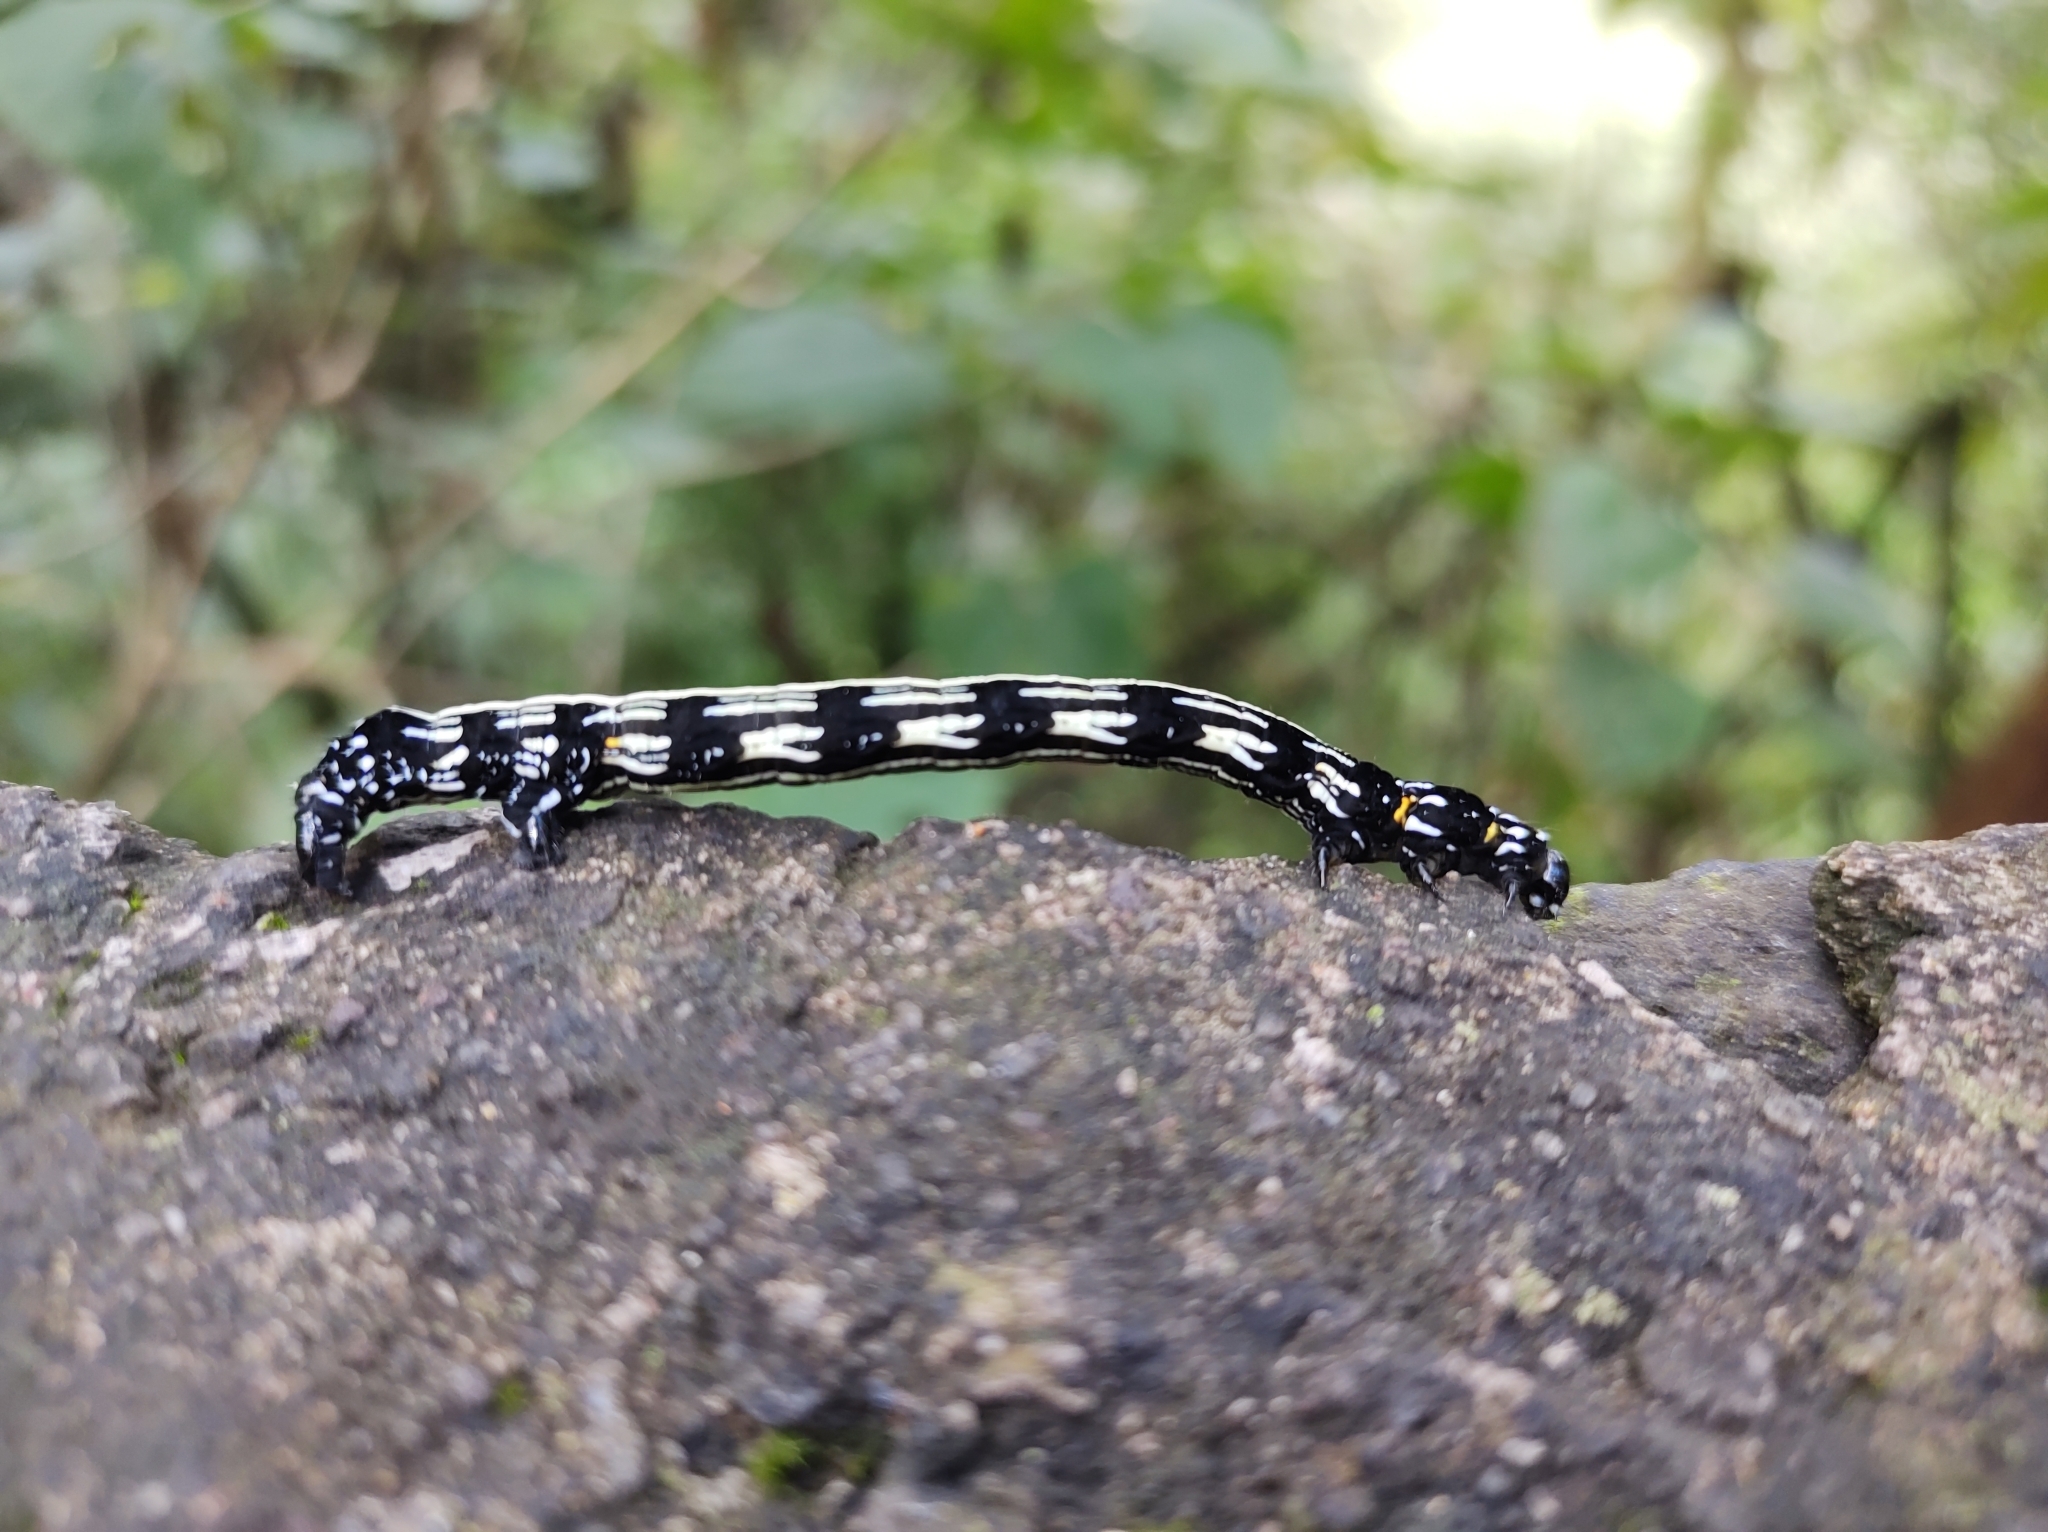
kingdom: Animalia
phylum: Arthropoda
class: Insecta
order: Lepidoptera
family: Geometridae
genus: Acronyctodes
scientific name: Acronyctodes mexicanaria
